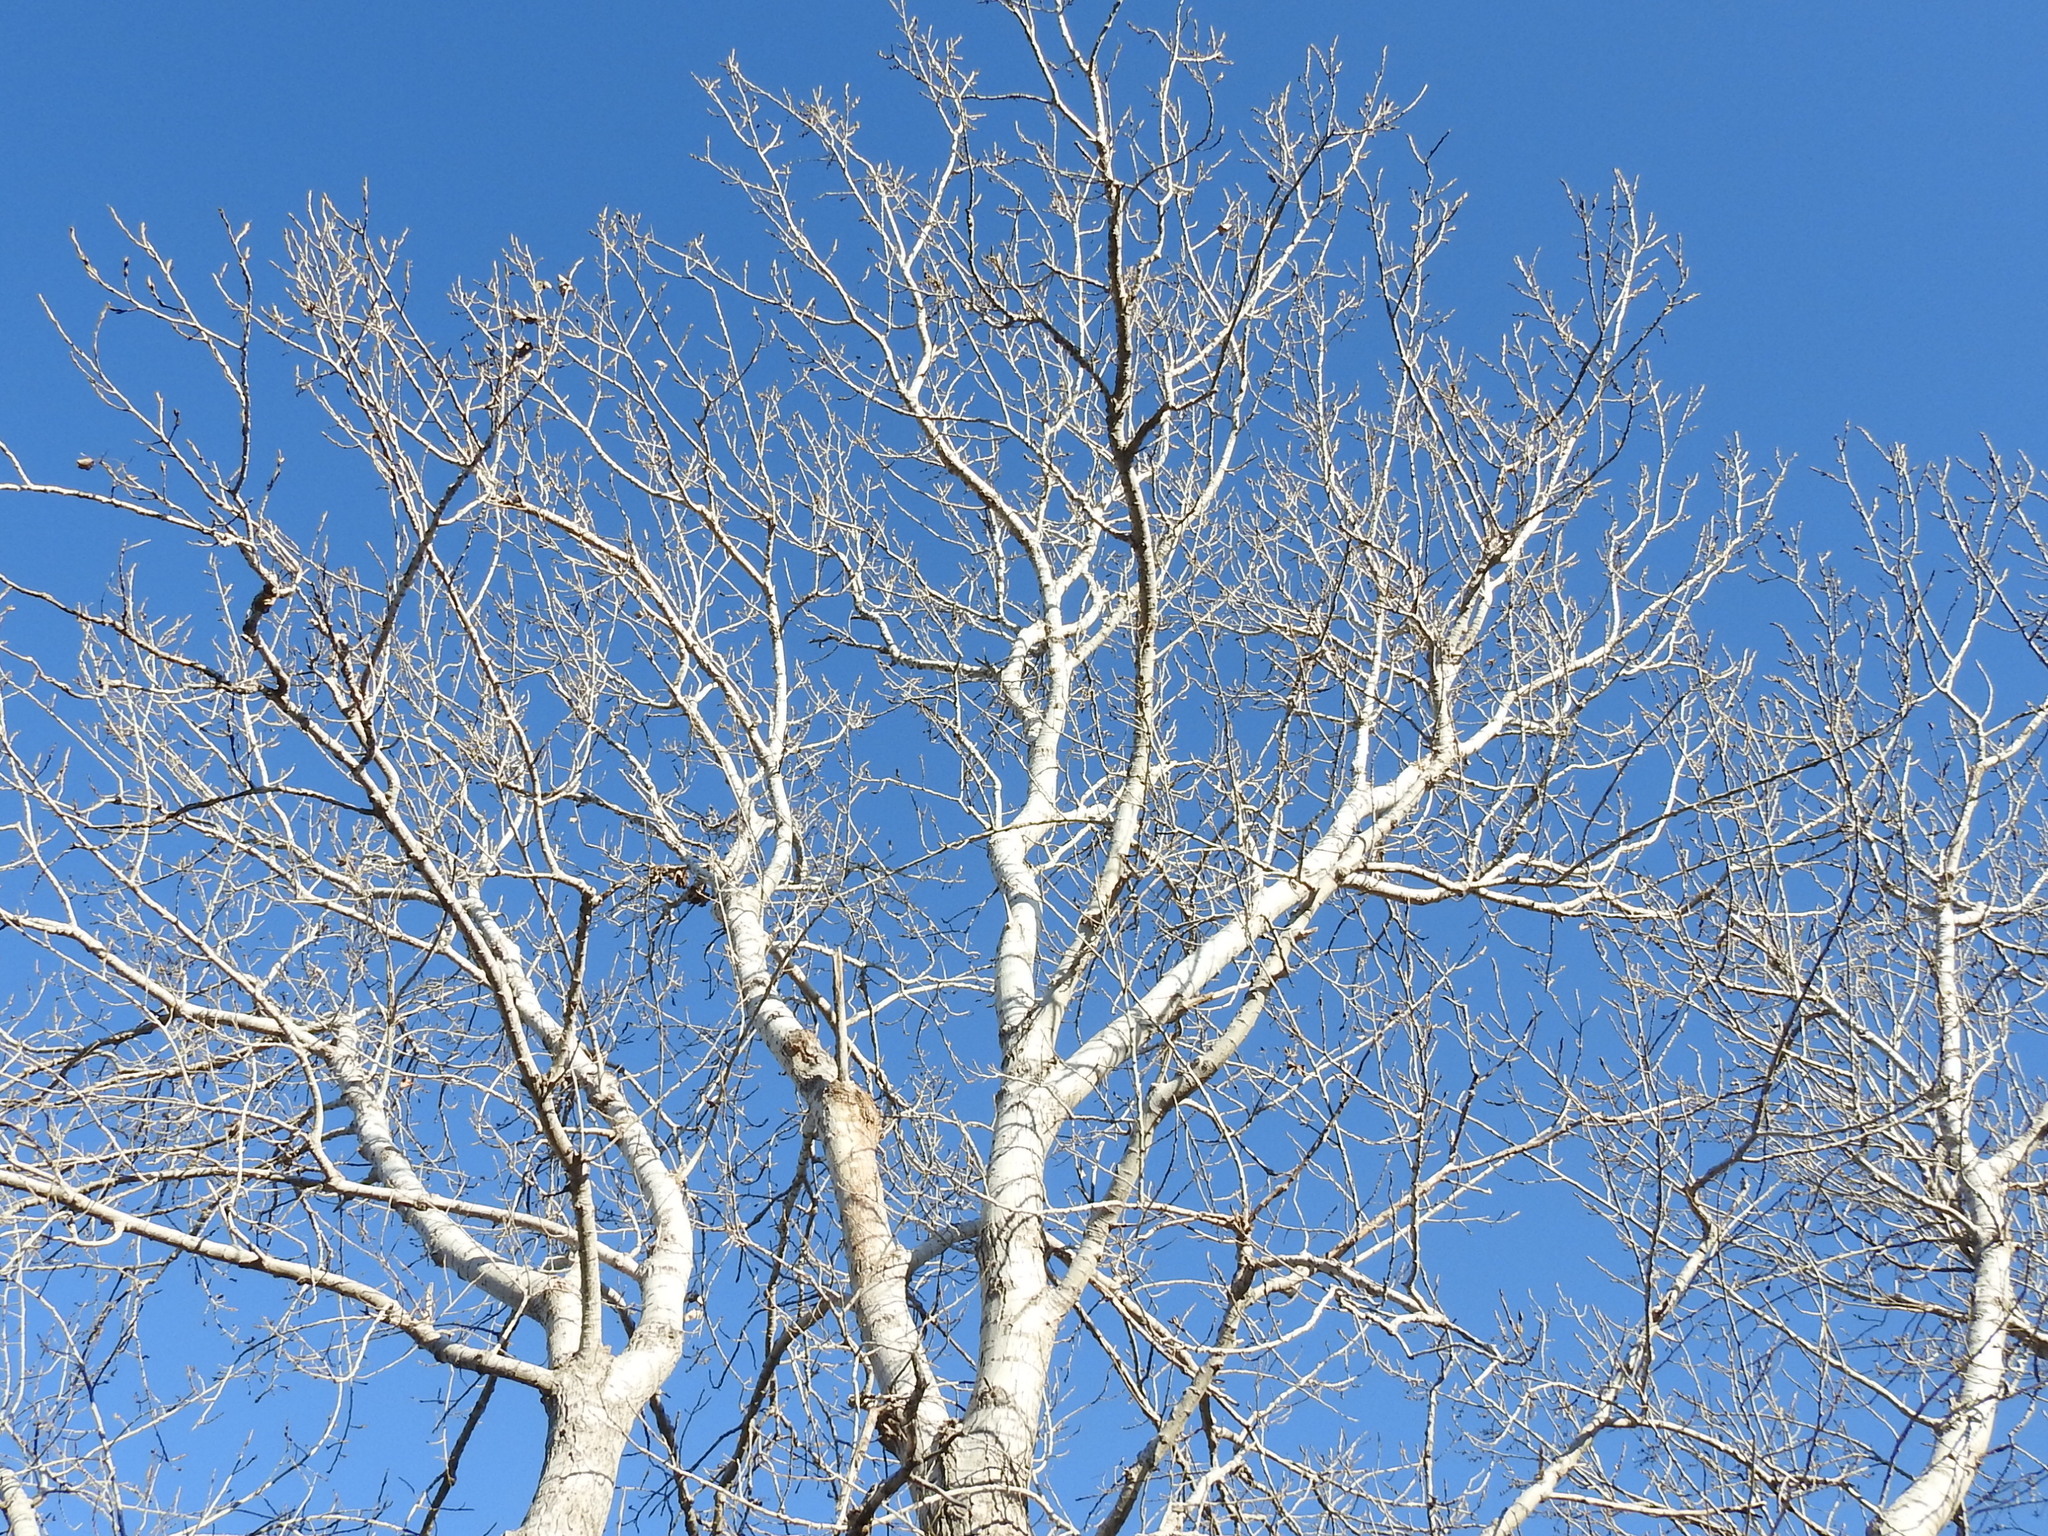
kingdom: Plantae
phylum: Tracheophyta
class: Magnoliopsida
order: Malpighiales
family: Salicaceae
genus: Populus
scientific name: Populus deltoides
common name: Eastern cottonwood
